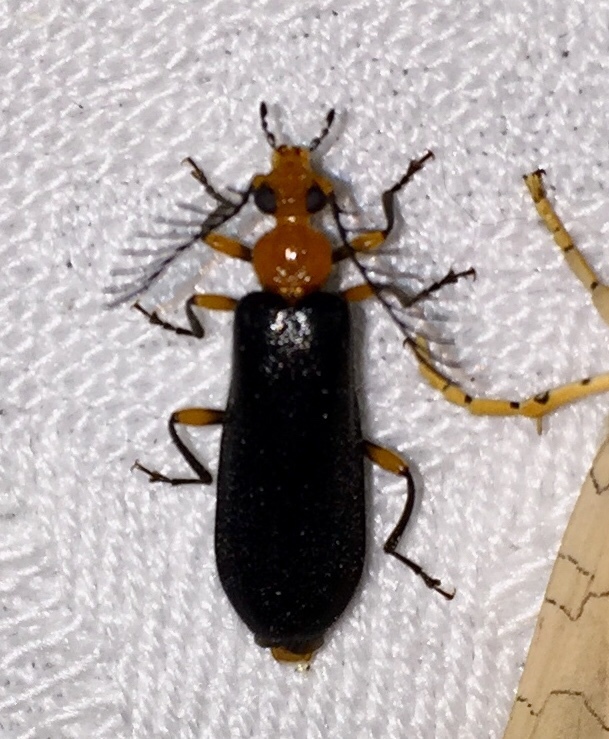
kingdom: Animalia
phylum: Arthropoda
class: Insecta
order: Coleoptera
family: Pyrochroidae
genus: Neopyrochroa
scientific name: Neopyrochroa femoralis
